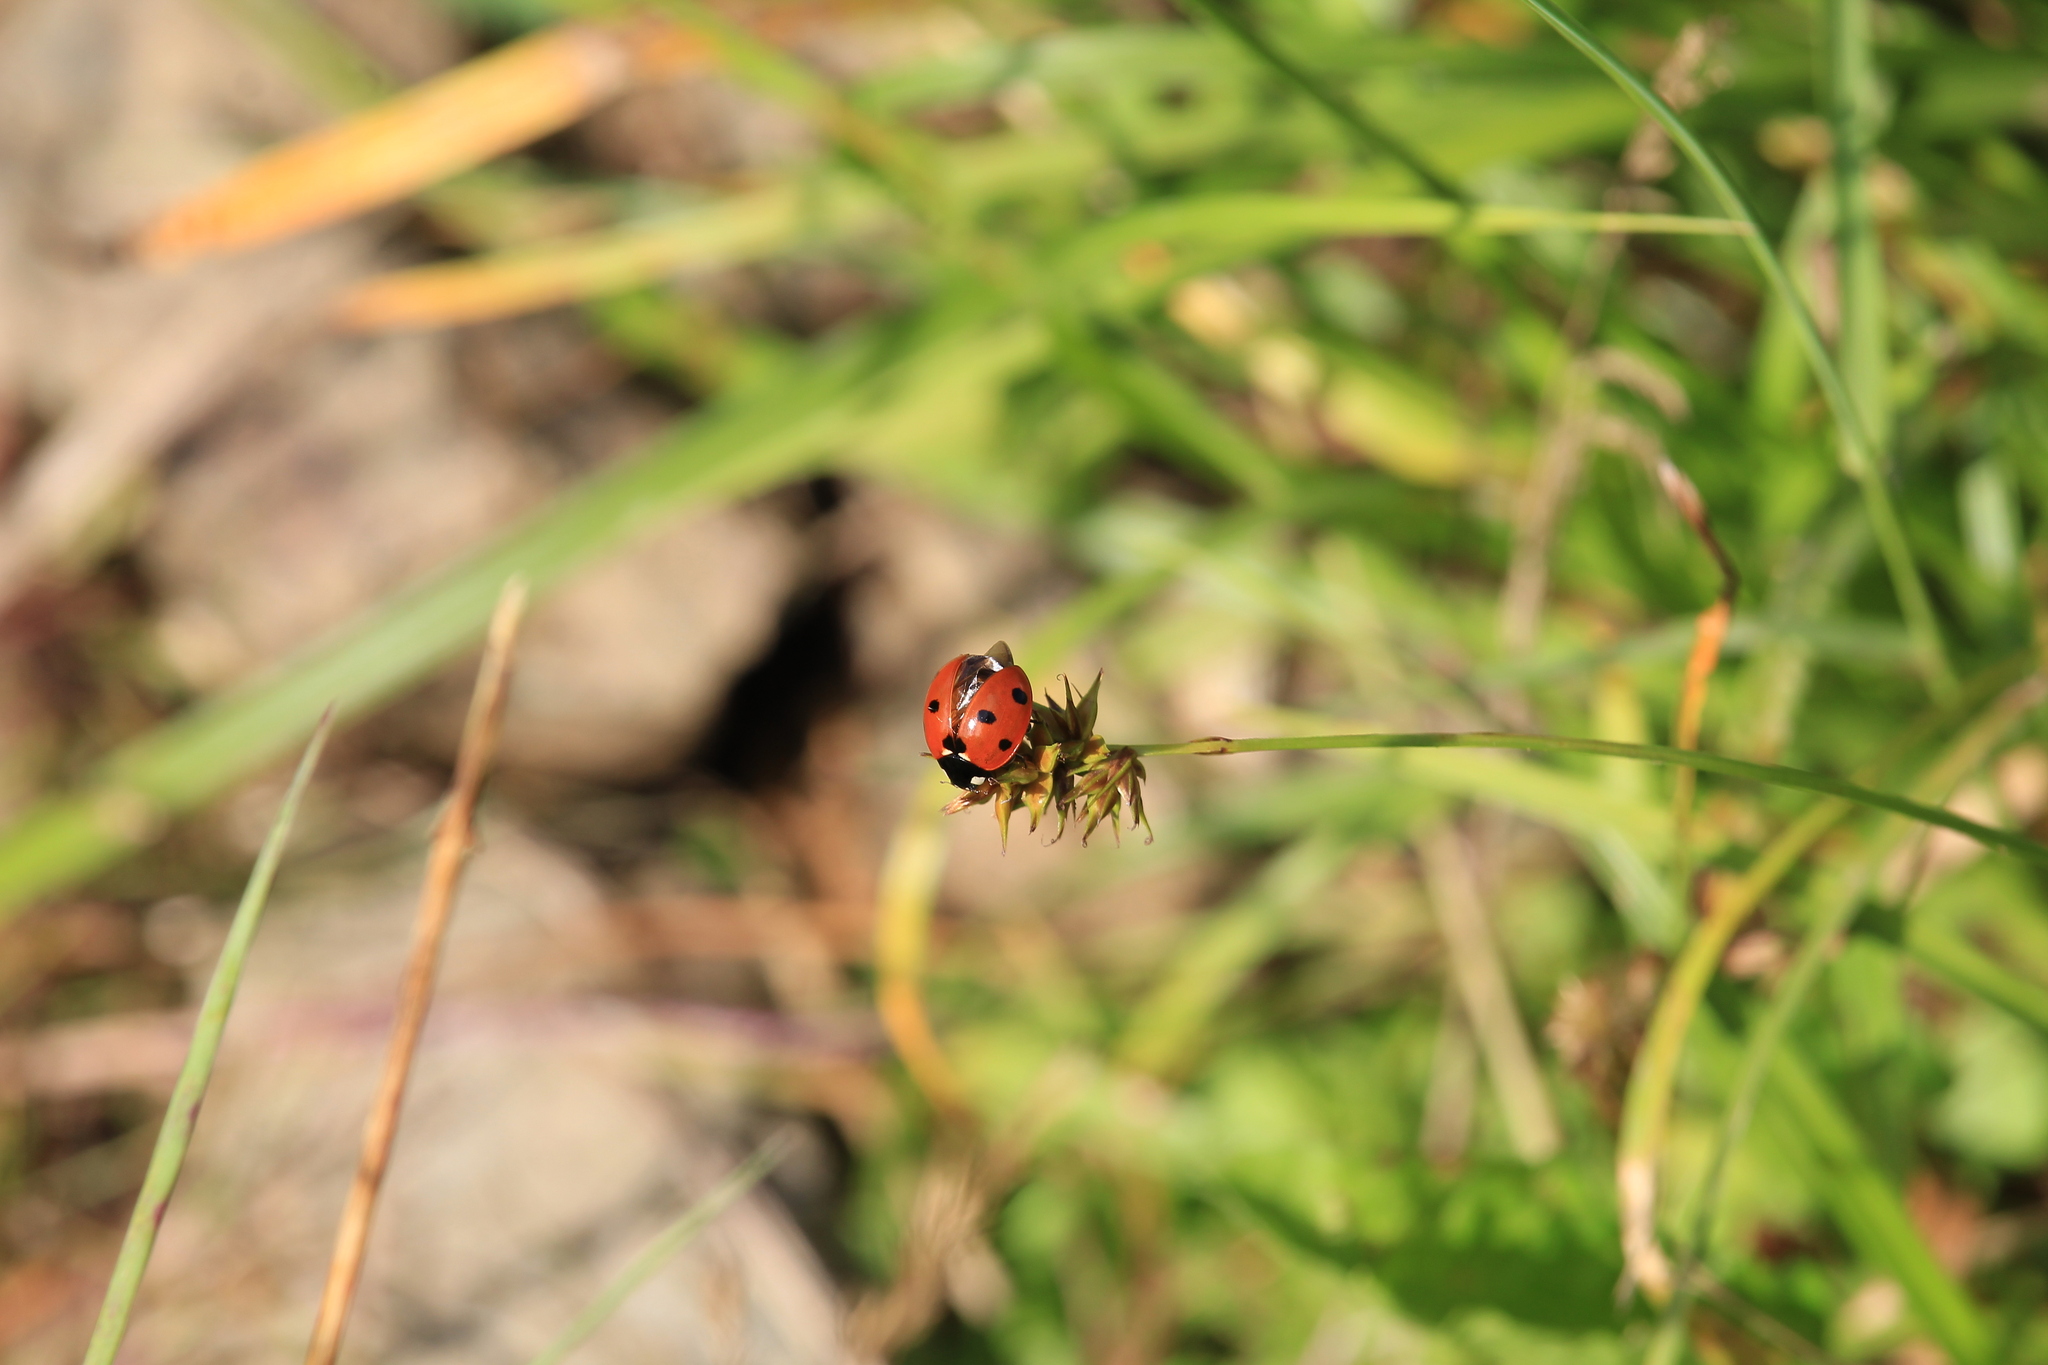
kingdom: Animalia
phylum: Arthropoda
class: Insecta
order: Coleoptera
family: Coccinellidae
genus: Coccinella
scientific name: Coccinella septempunctata
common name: Sevenspotted lady beetle
